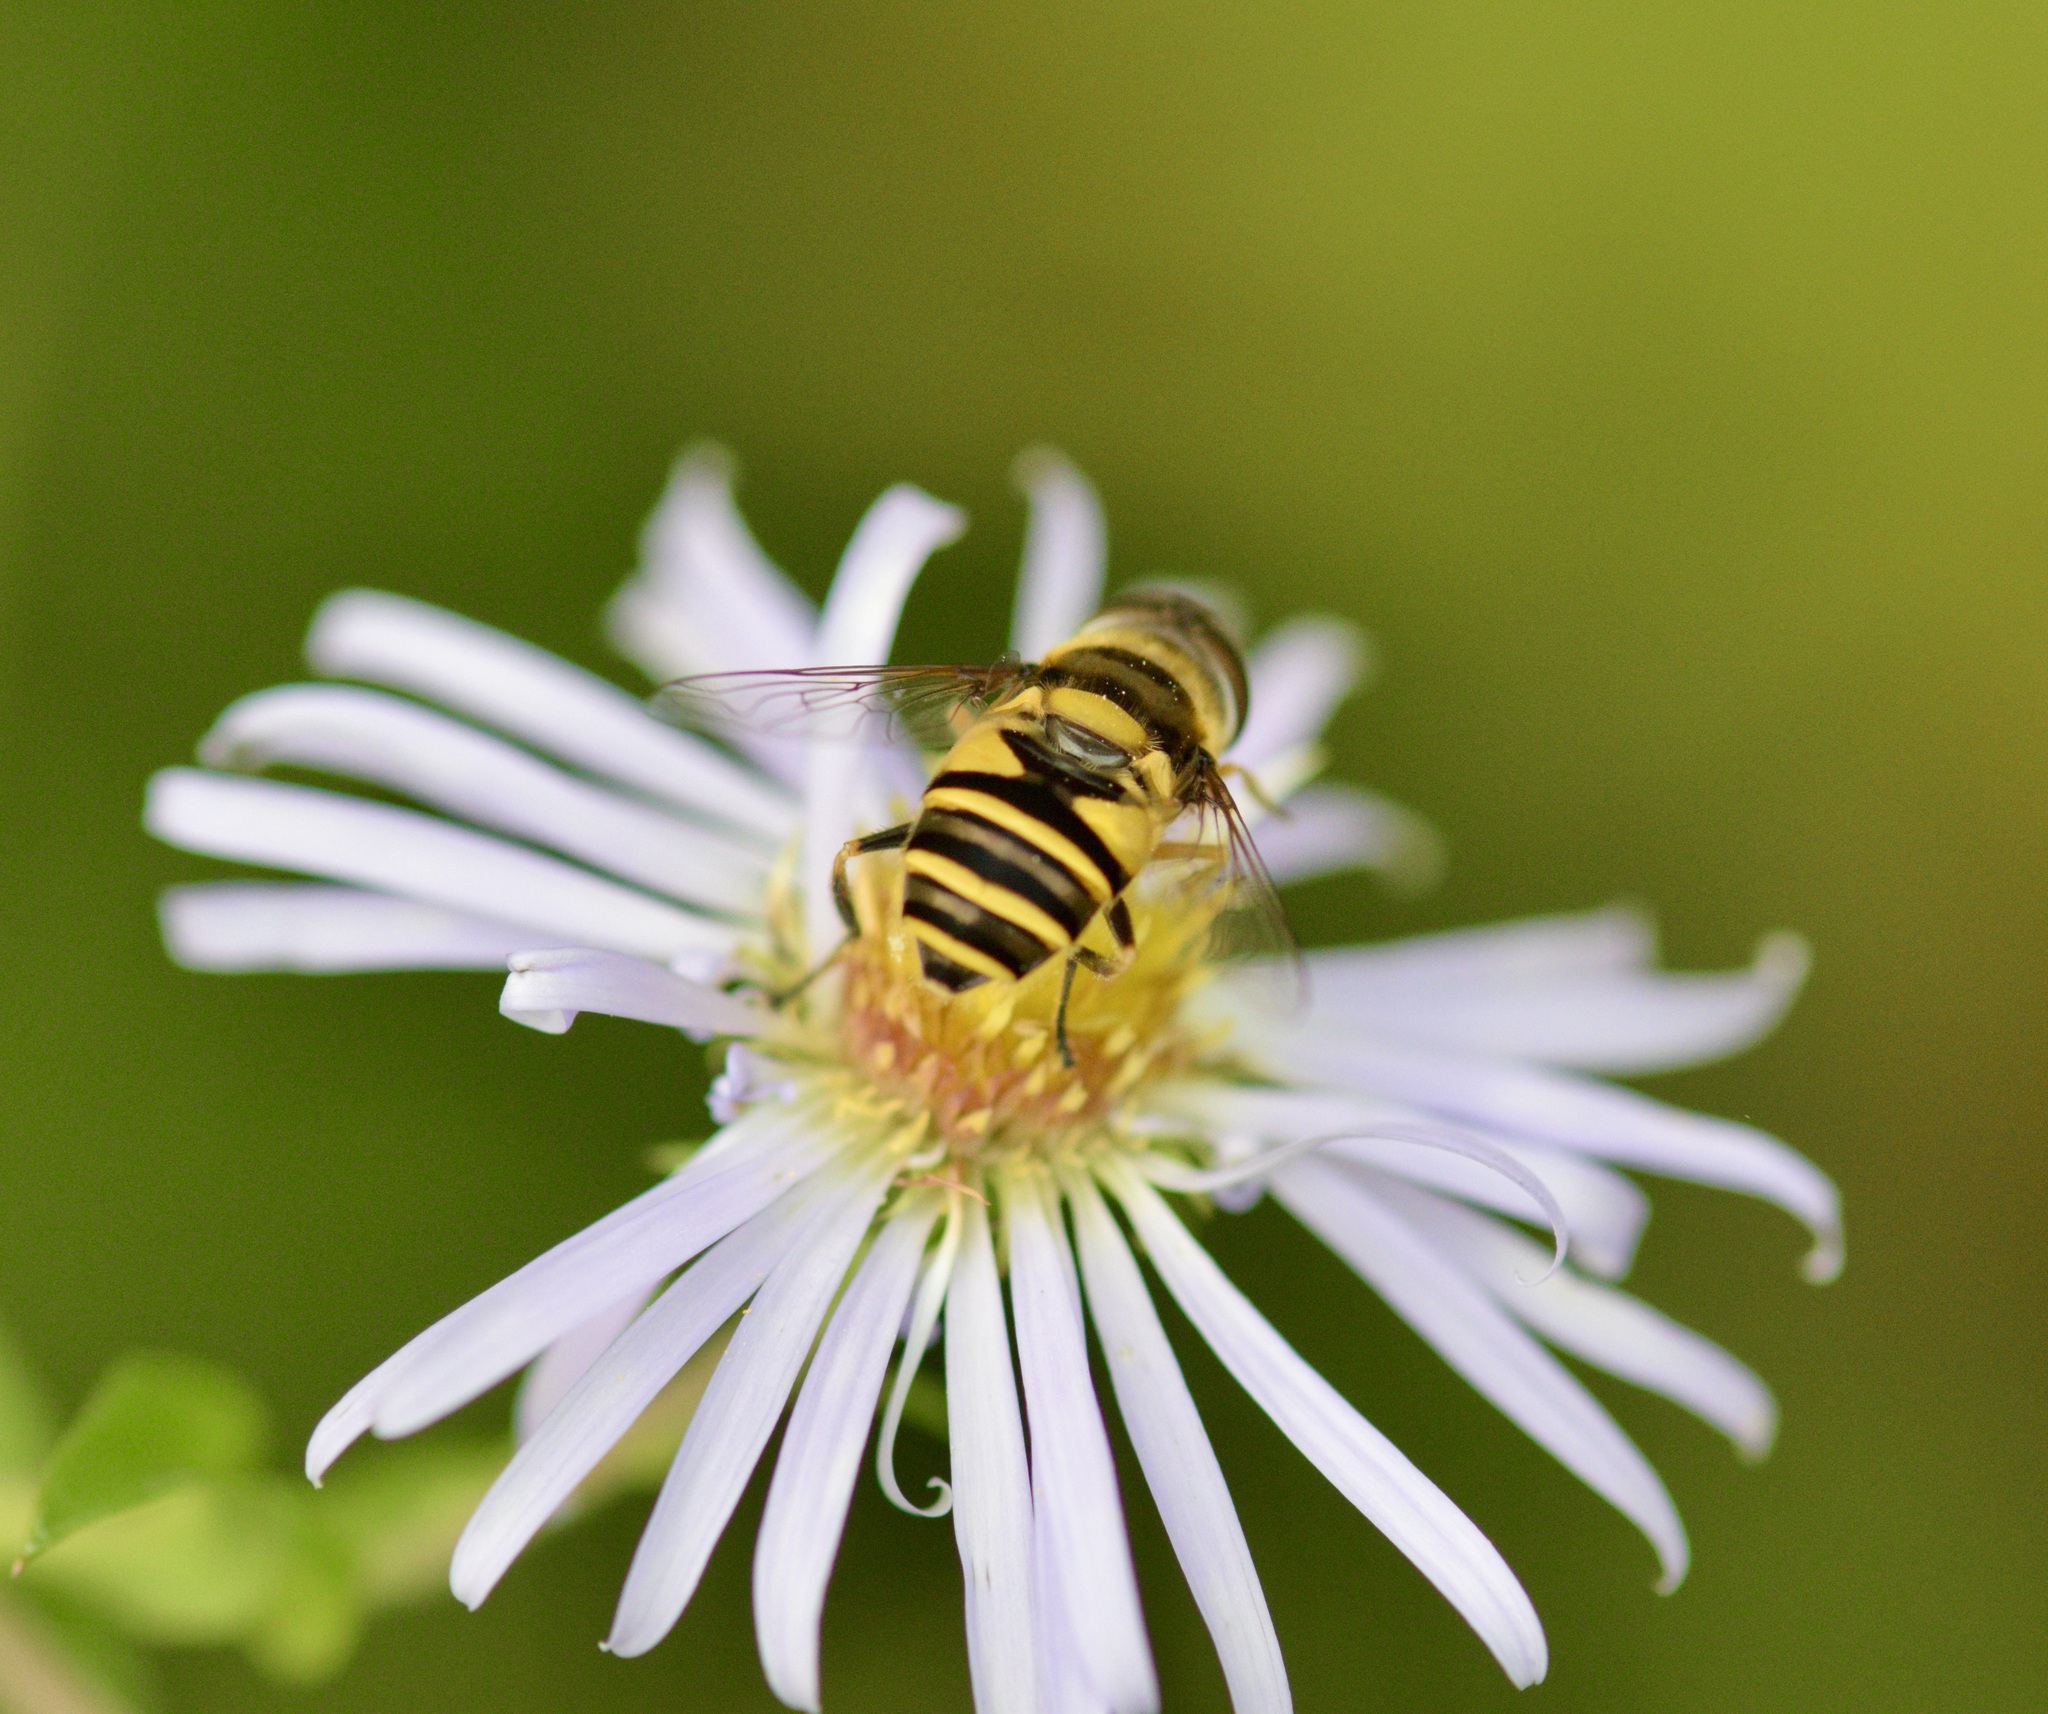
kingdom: Animalia
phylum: Arthropoda
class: Insecta
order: Diptera
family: Syrphidae
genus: Eristalis
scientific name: Eristalis transversa
